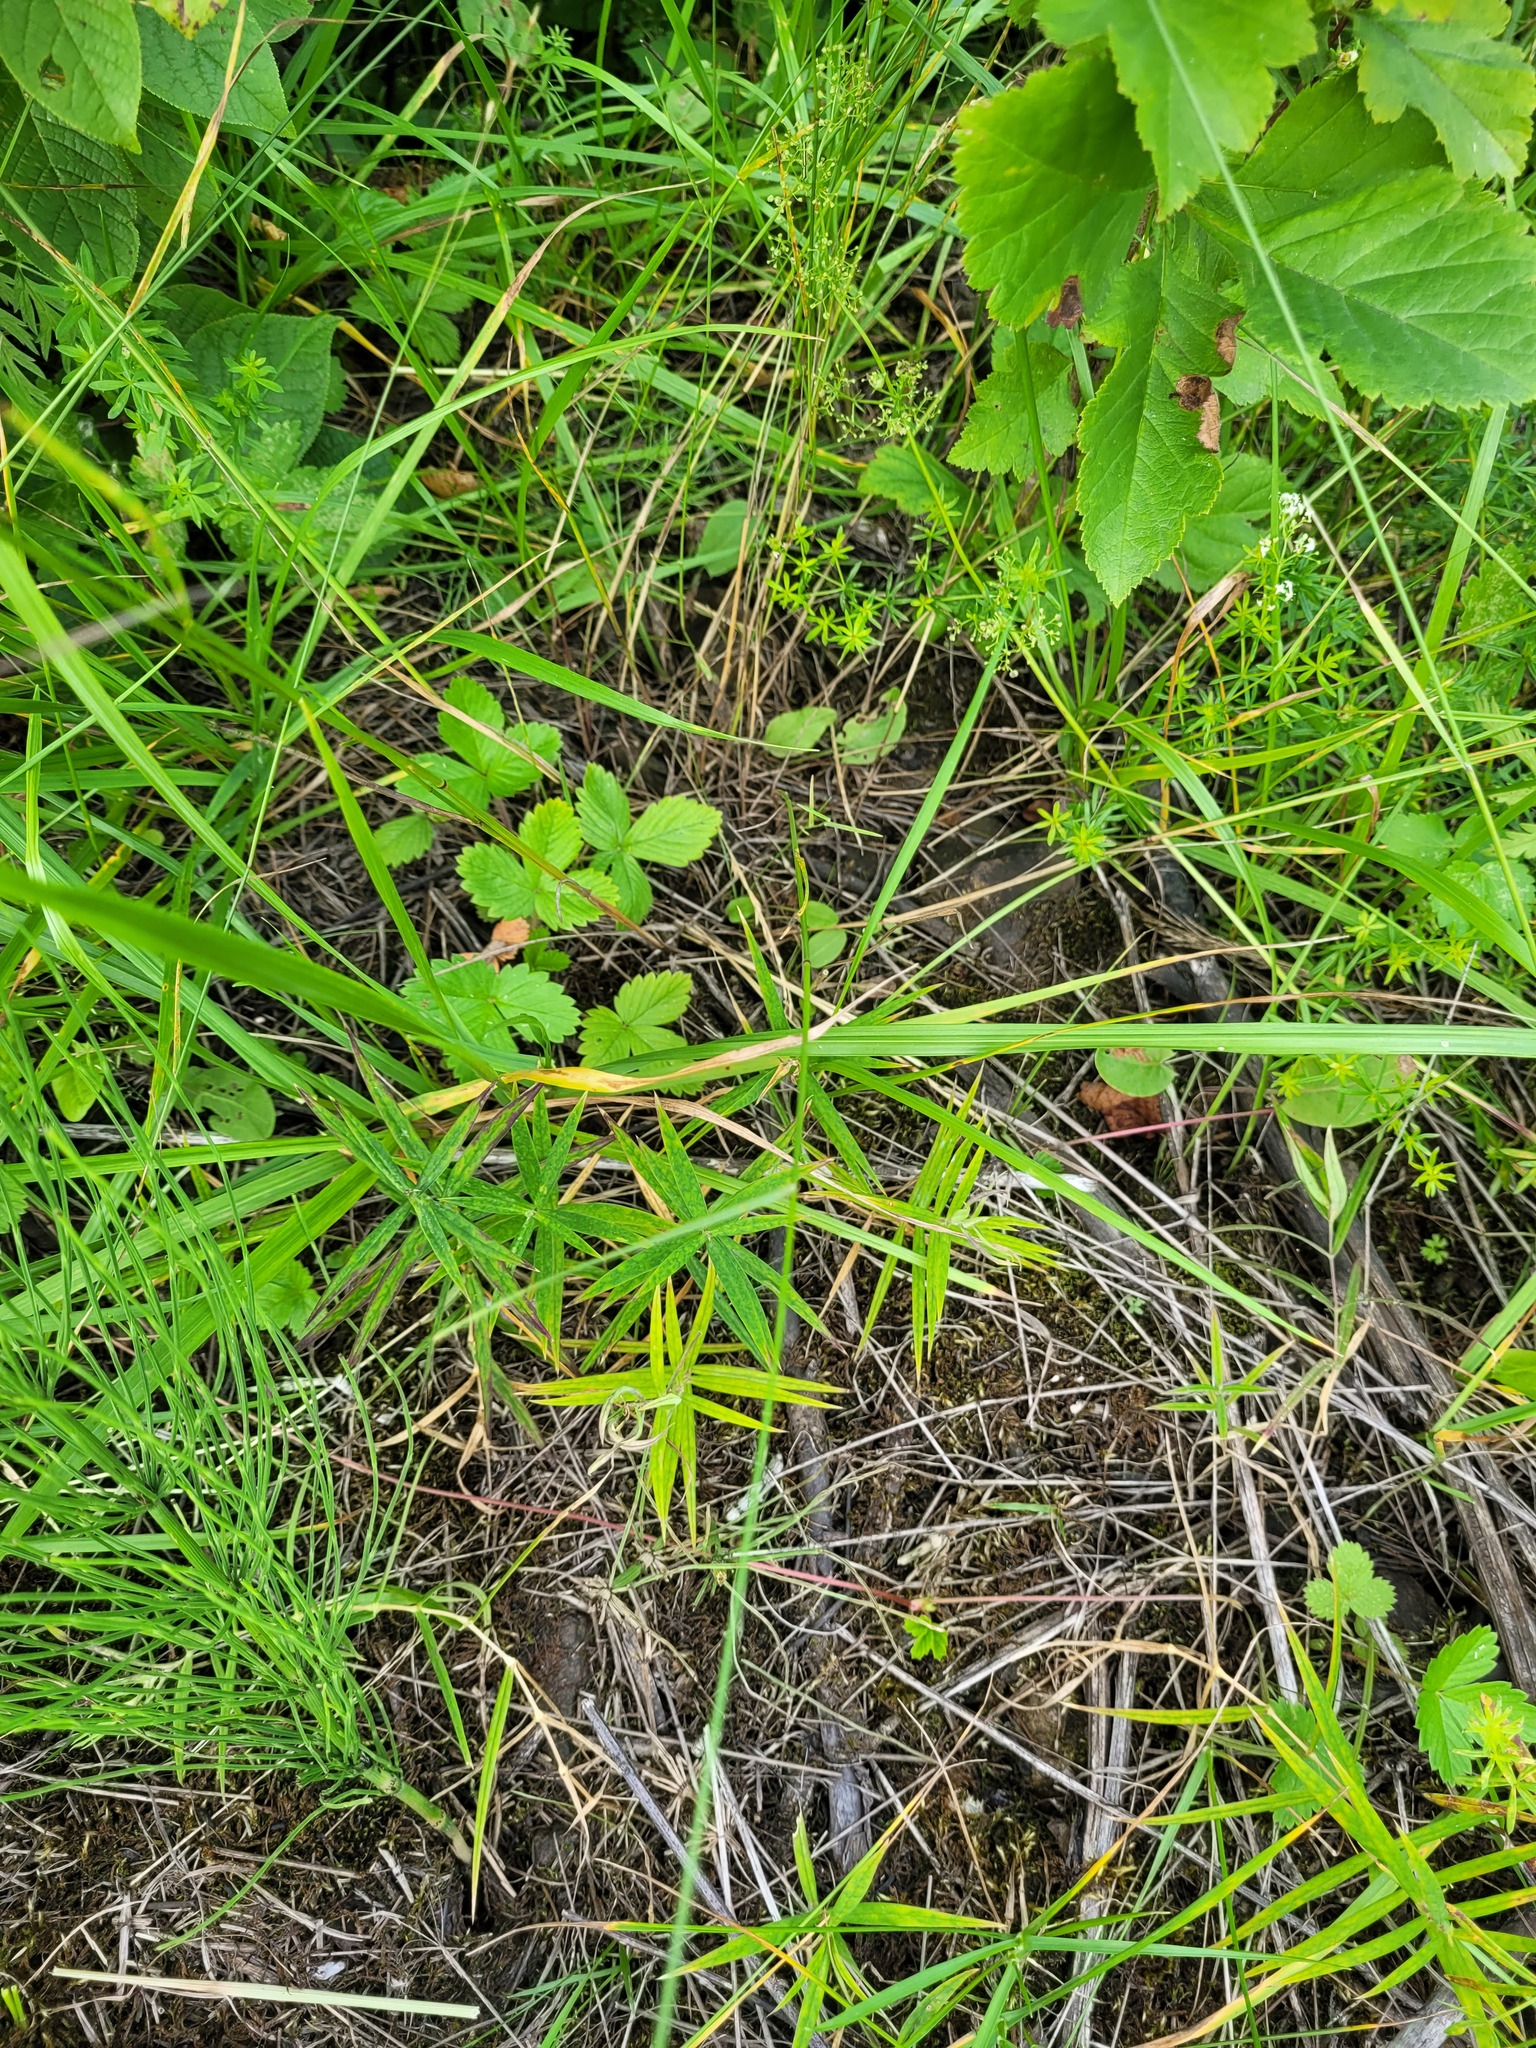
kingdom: Plantae
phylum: Tracheophyta
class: Magnoliopsida
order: Caryophyllales
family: Caryophyllaceae
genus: Rabelera
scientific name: Rabelera holostea
